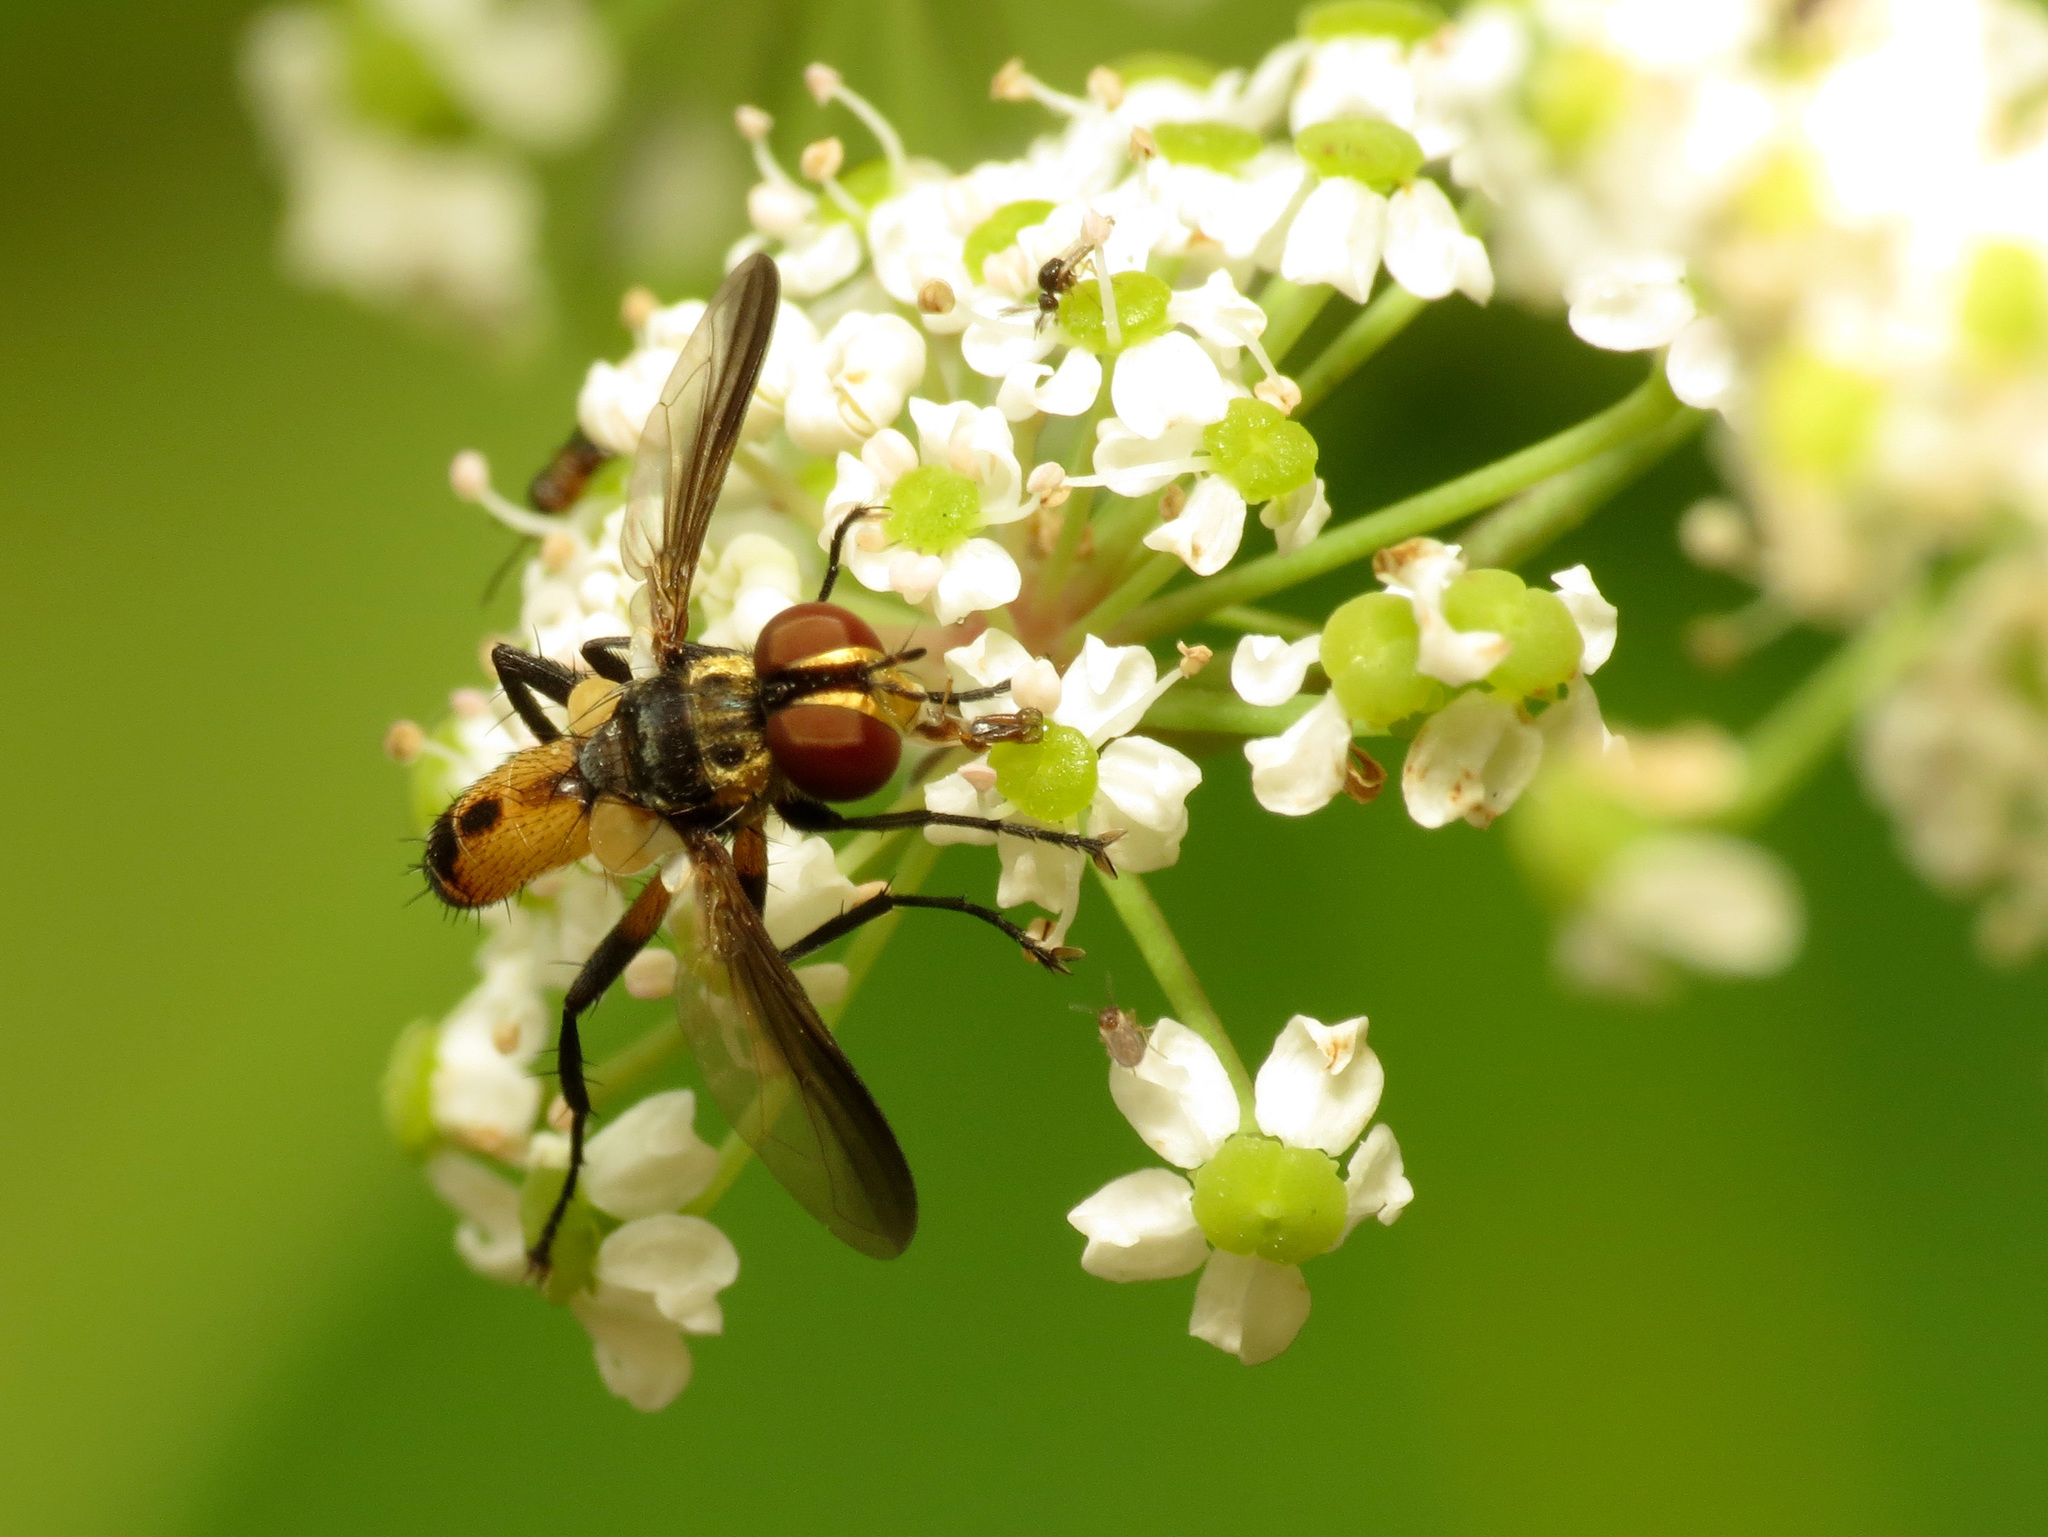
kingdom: Animalia
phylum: Arthropoda
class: Insecta
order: Diptera
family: Tachinidae
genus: Xanthomelanodes
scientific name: Xanthomelanodes arcuatus
